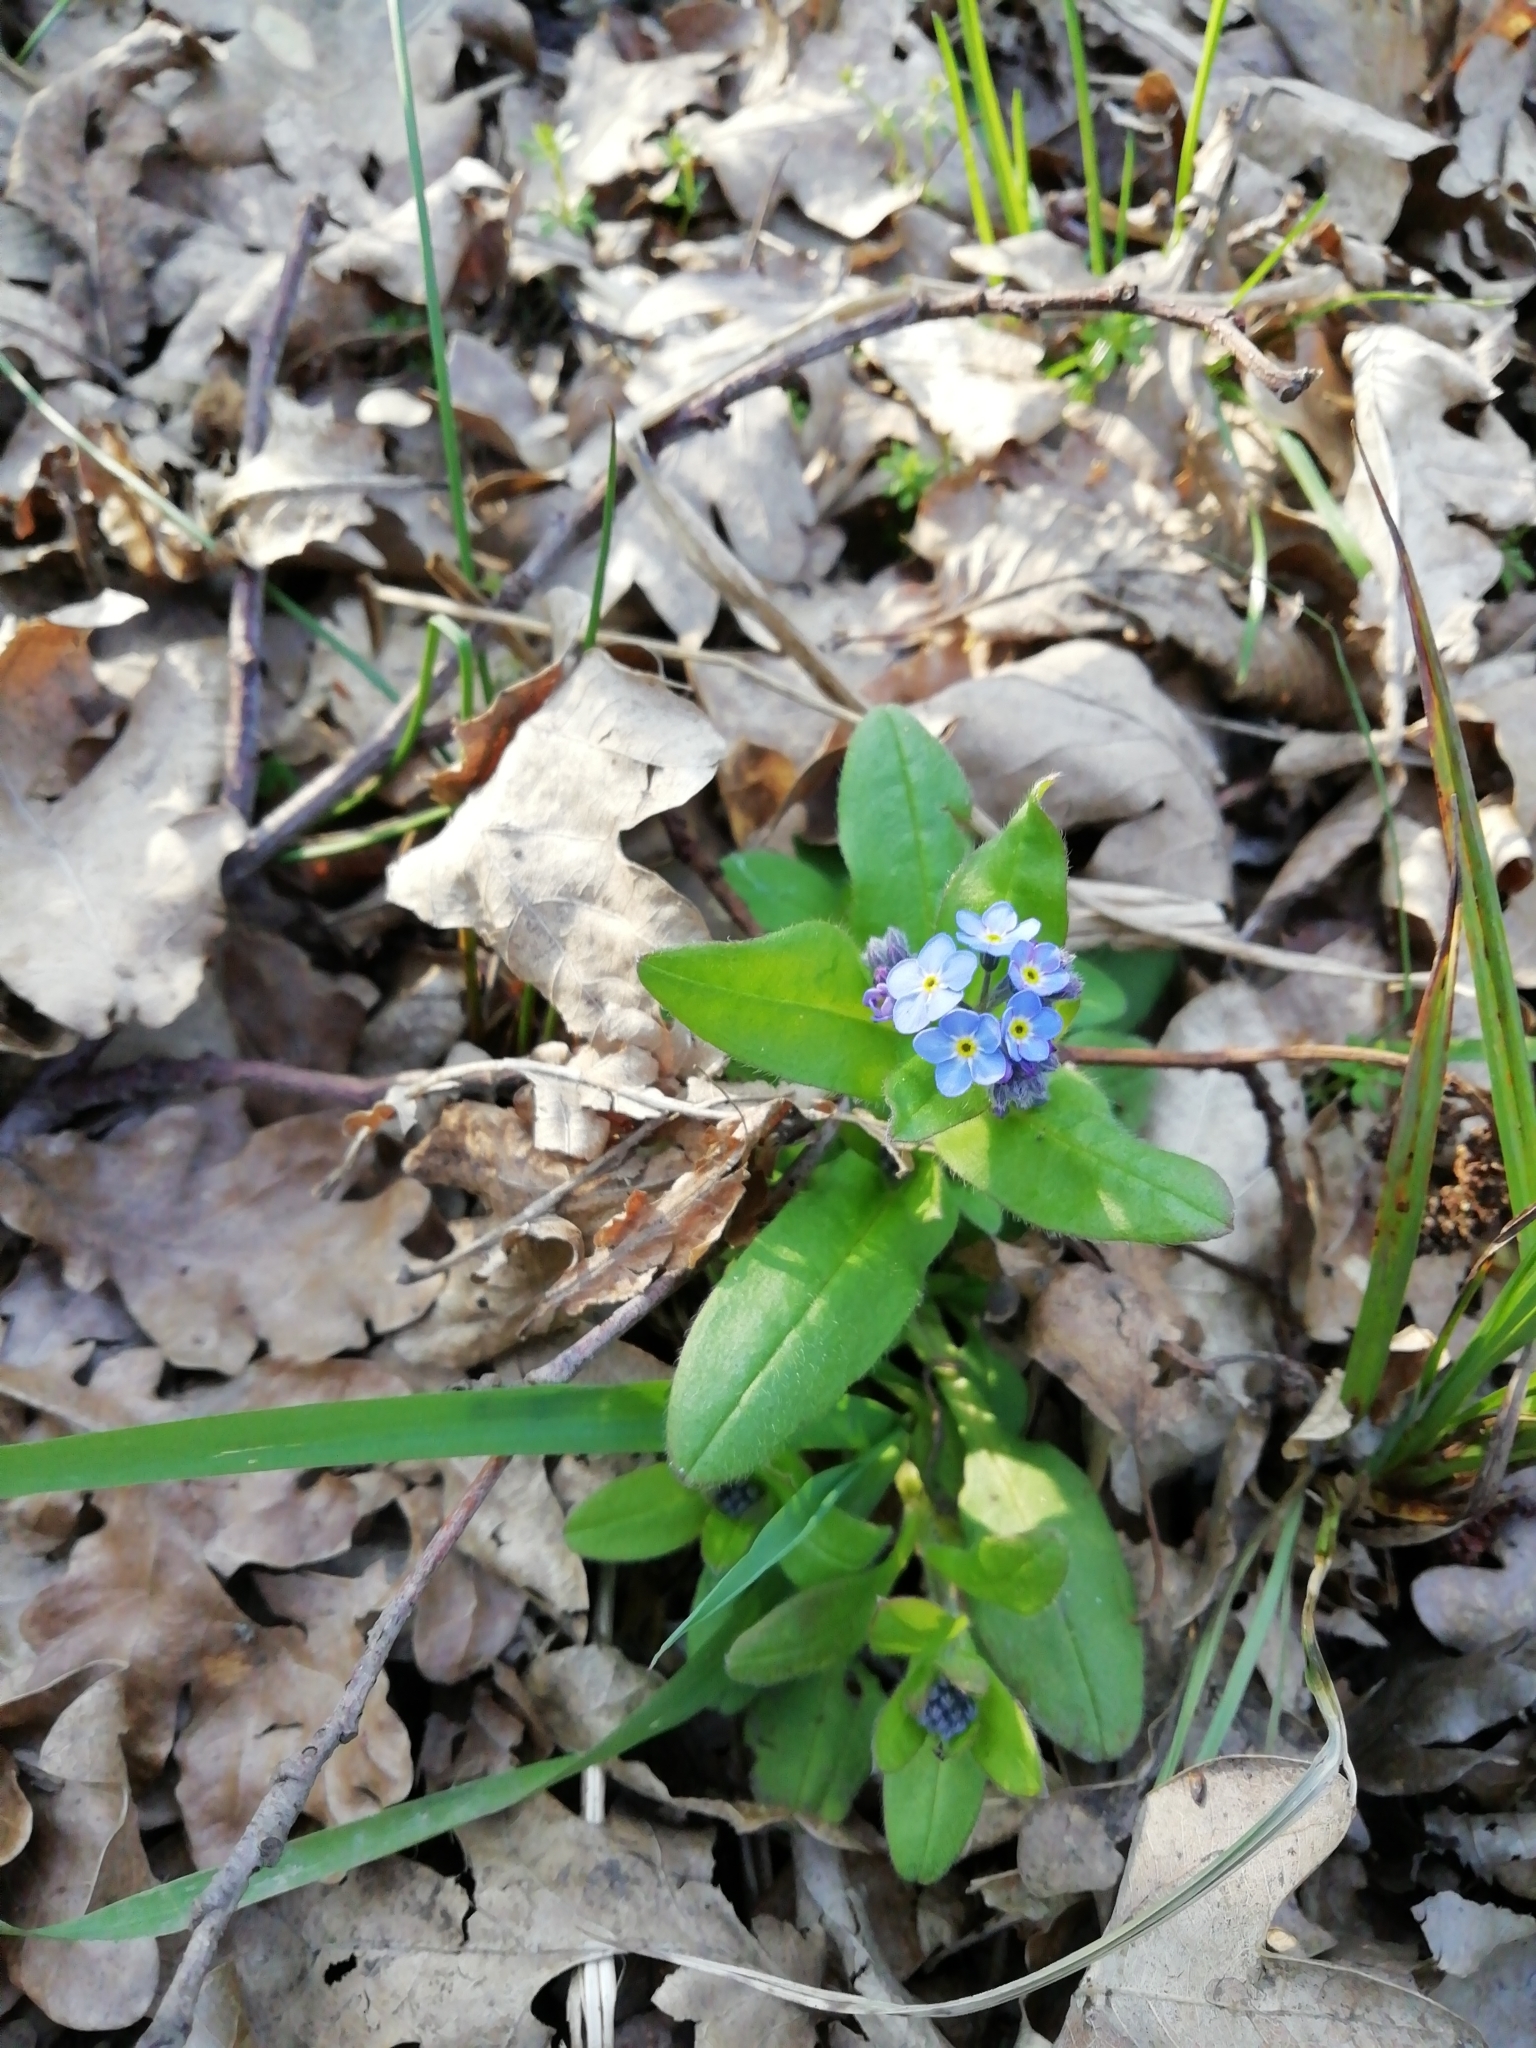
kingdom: Plantae
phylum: Tracheophyta
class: Magnoliopsida
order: Boraginales
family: Boraginaceae
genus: Myosotis
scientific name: Myosotis sylvatica
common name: Wood forget-me-not
